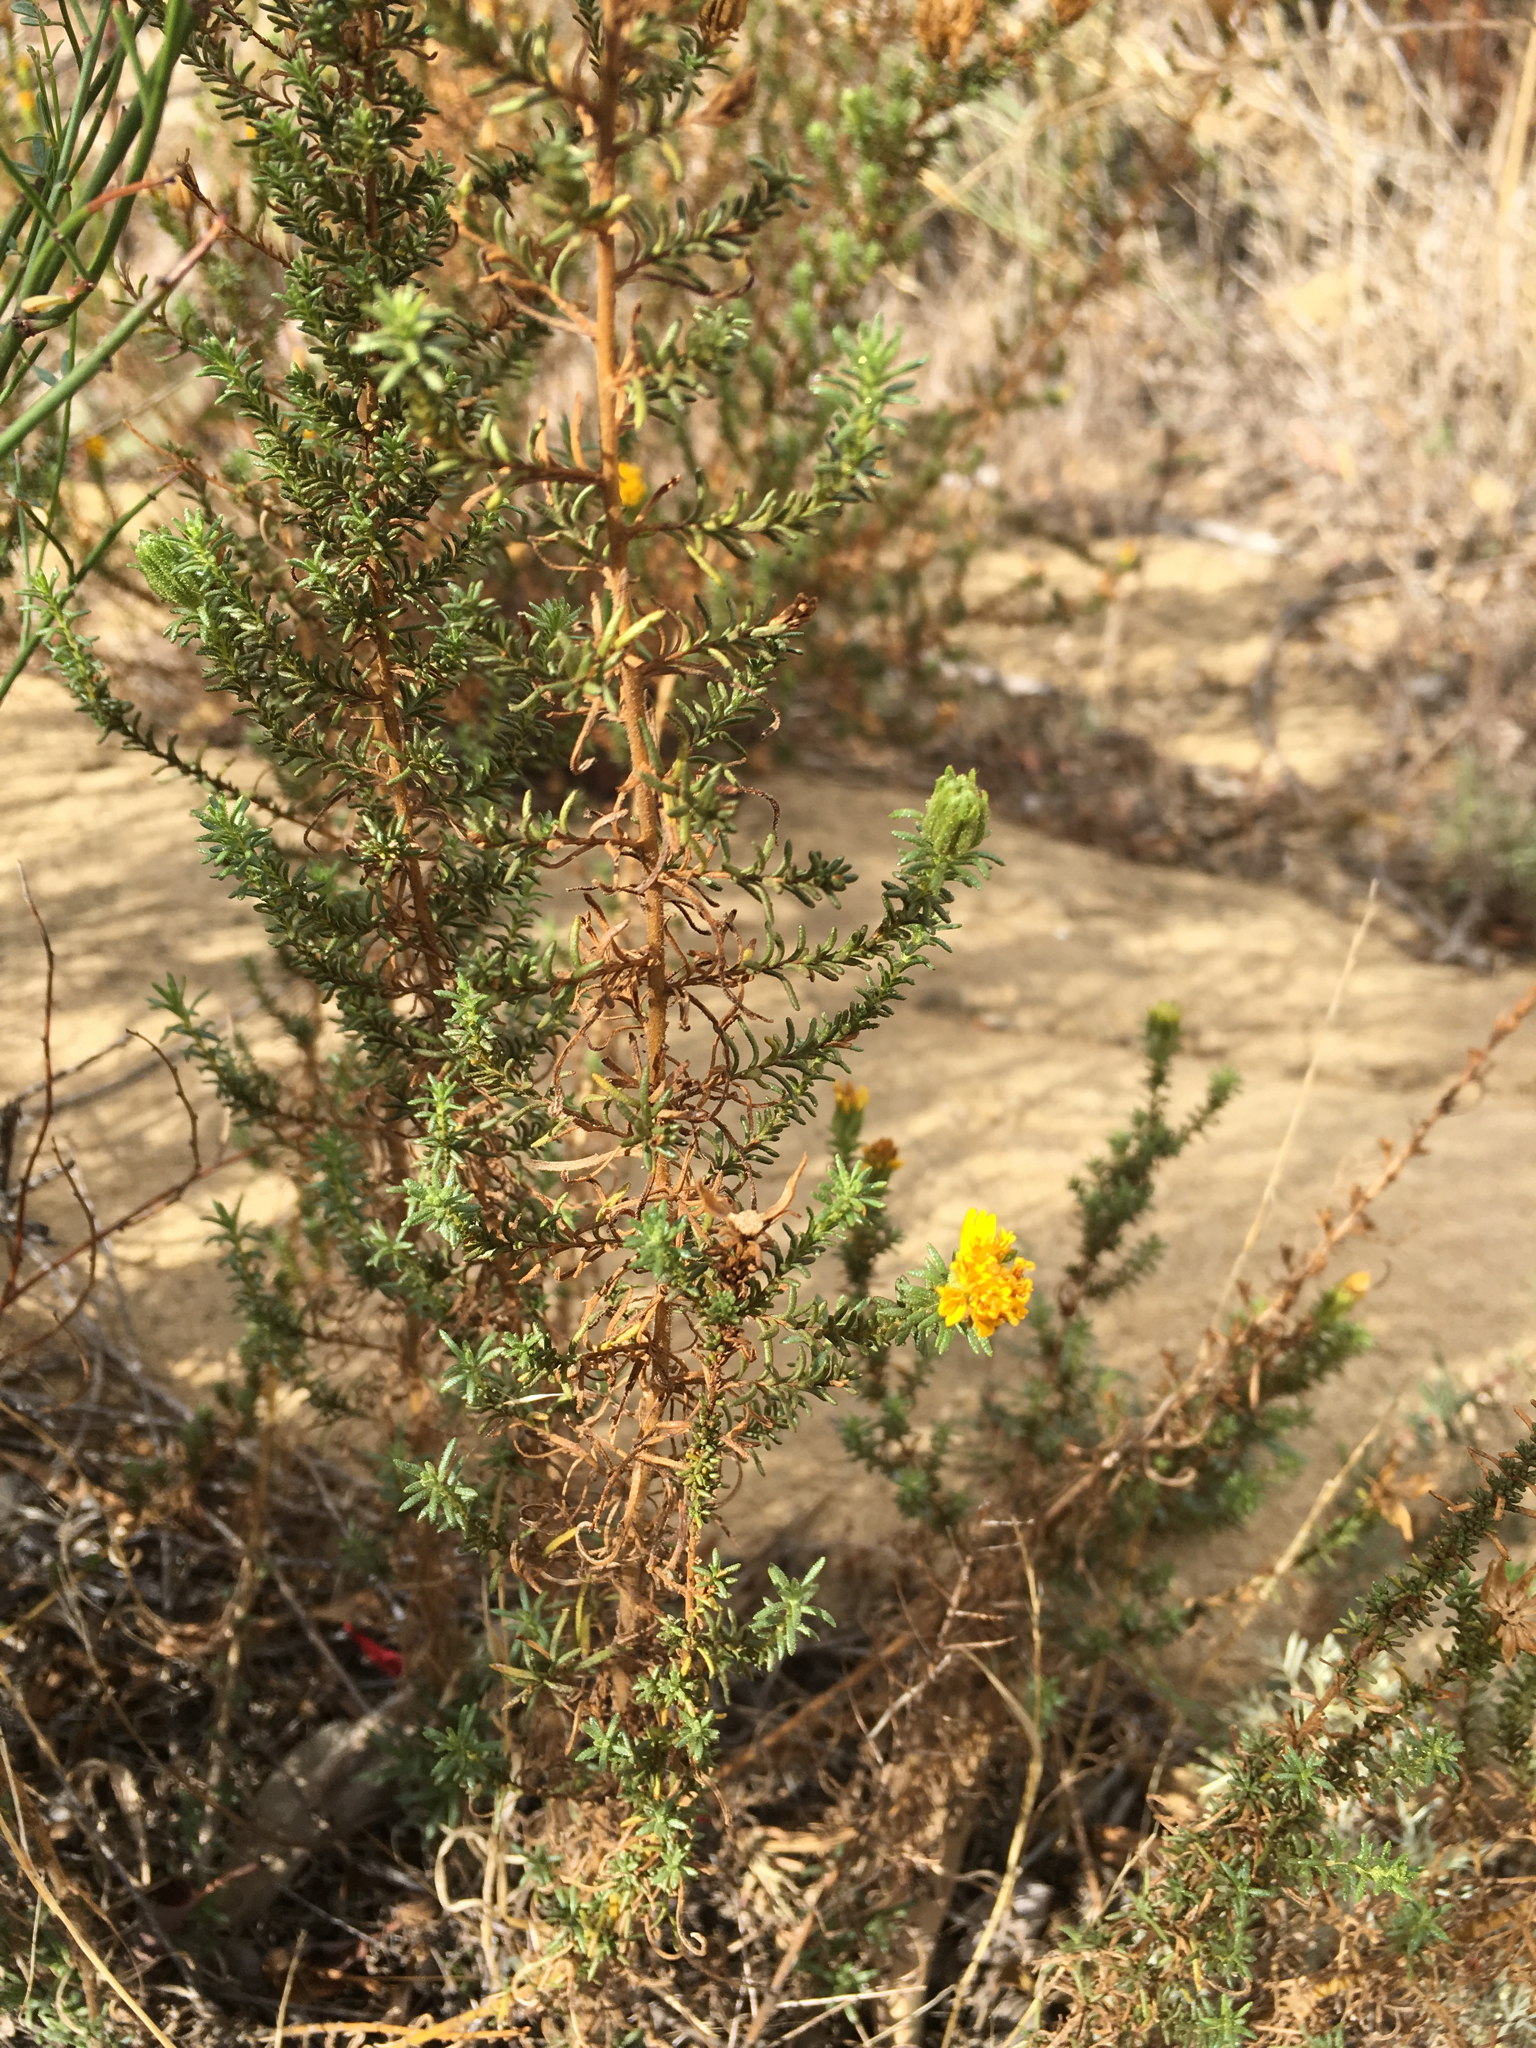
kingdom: Plantae
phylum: Tracheophyta
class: Magnoliopsida
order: Asterales
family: Asteraceae
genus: Deinandra
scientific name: Deinandra minthornii
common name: Santa susana tarplant
